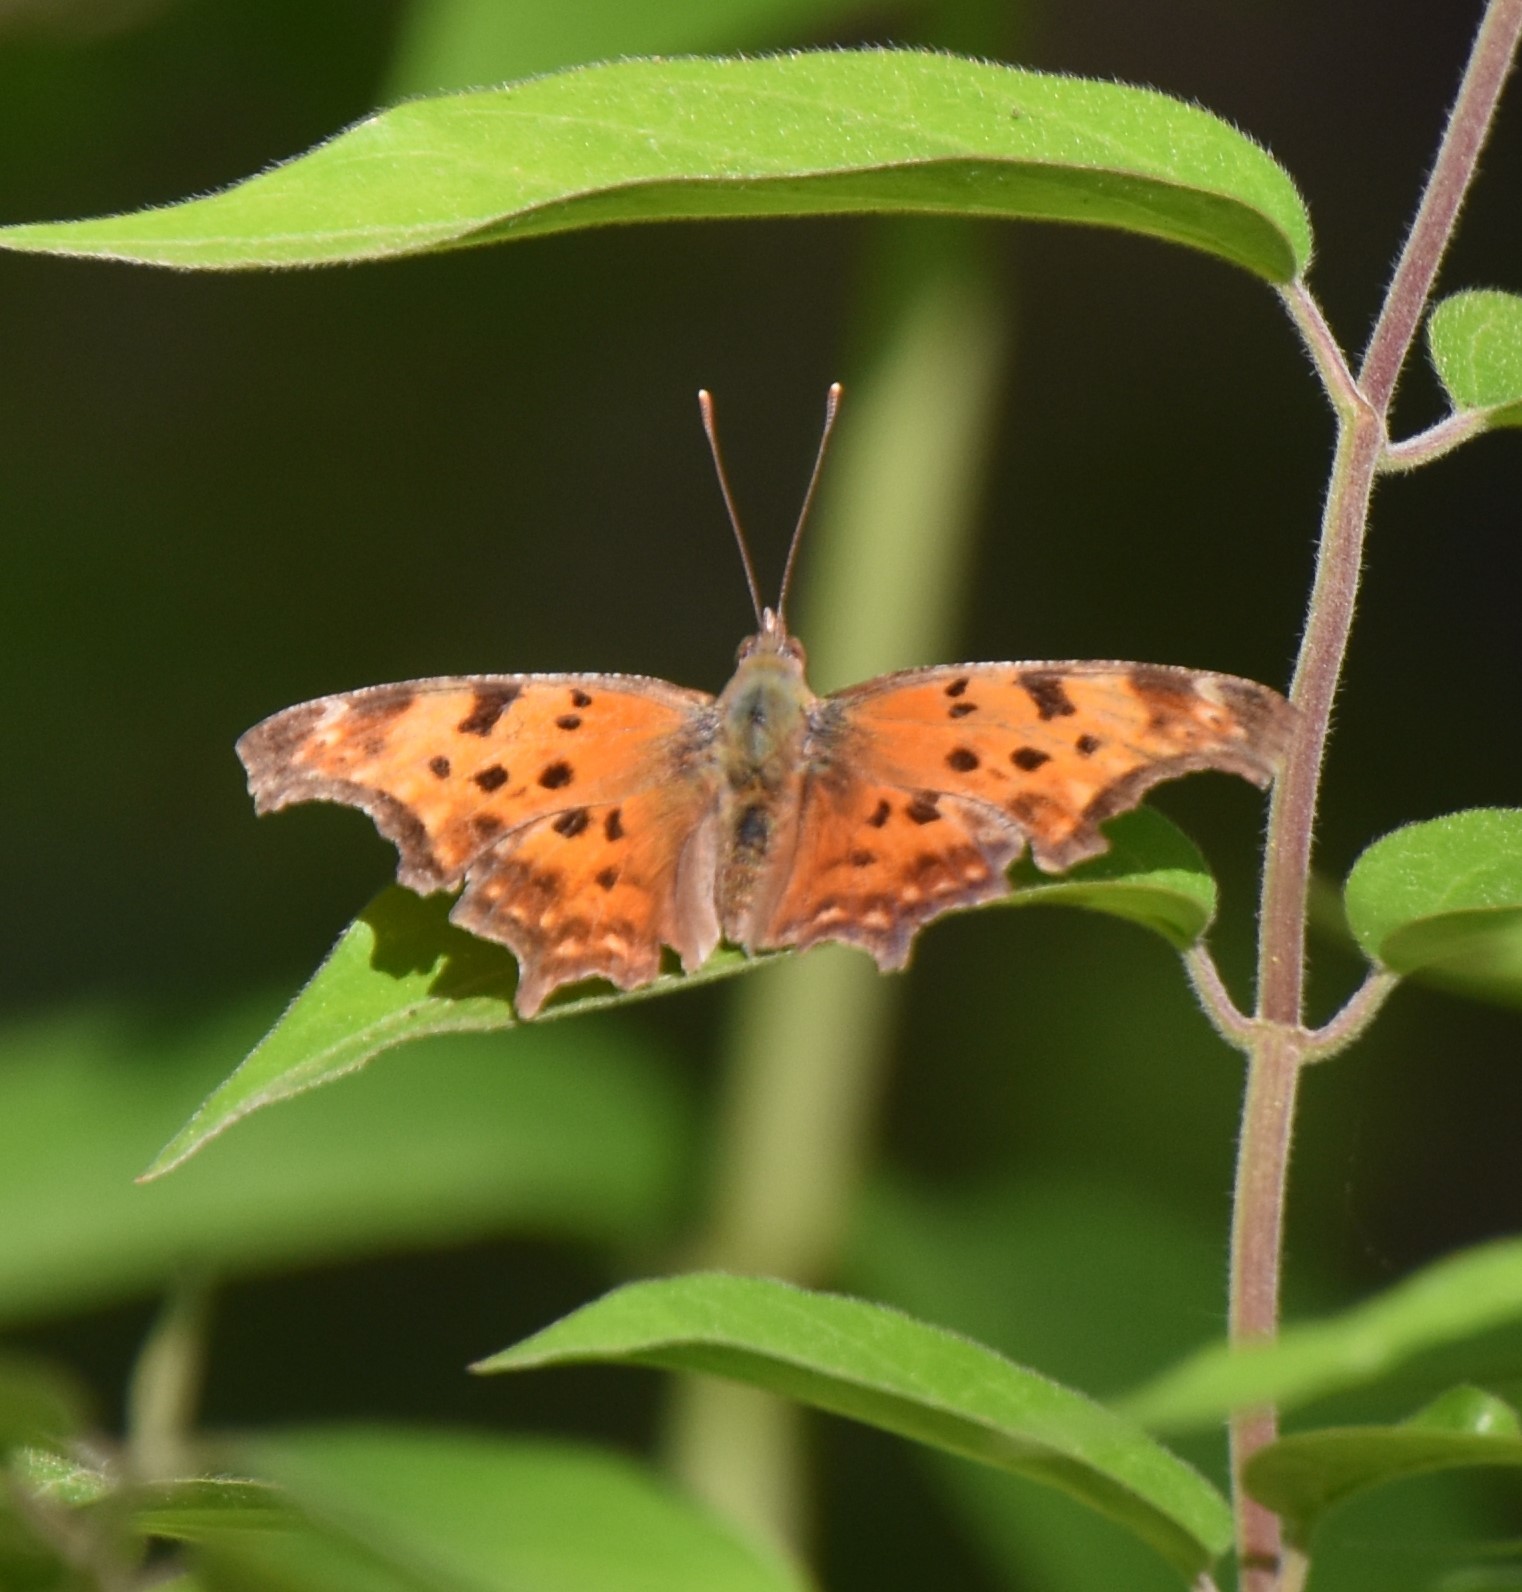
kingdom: Animalia
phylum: Arthropoda
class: Insecta
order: Lepidoptera
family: Nymphalidae
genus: Polygonia
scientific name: Polygonia comma
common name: Eastern comma
